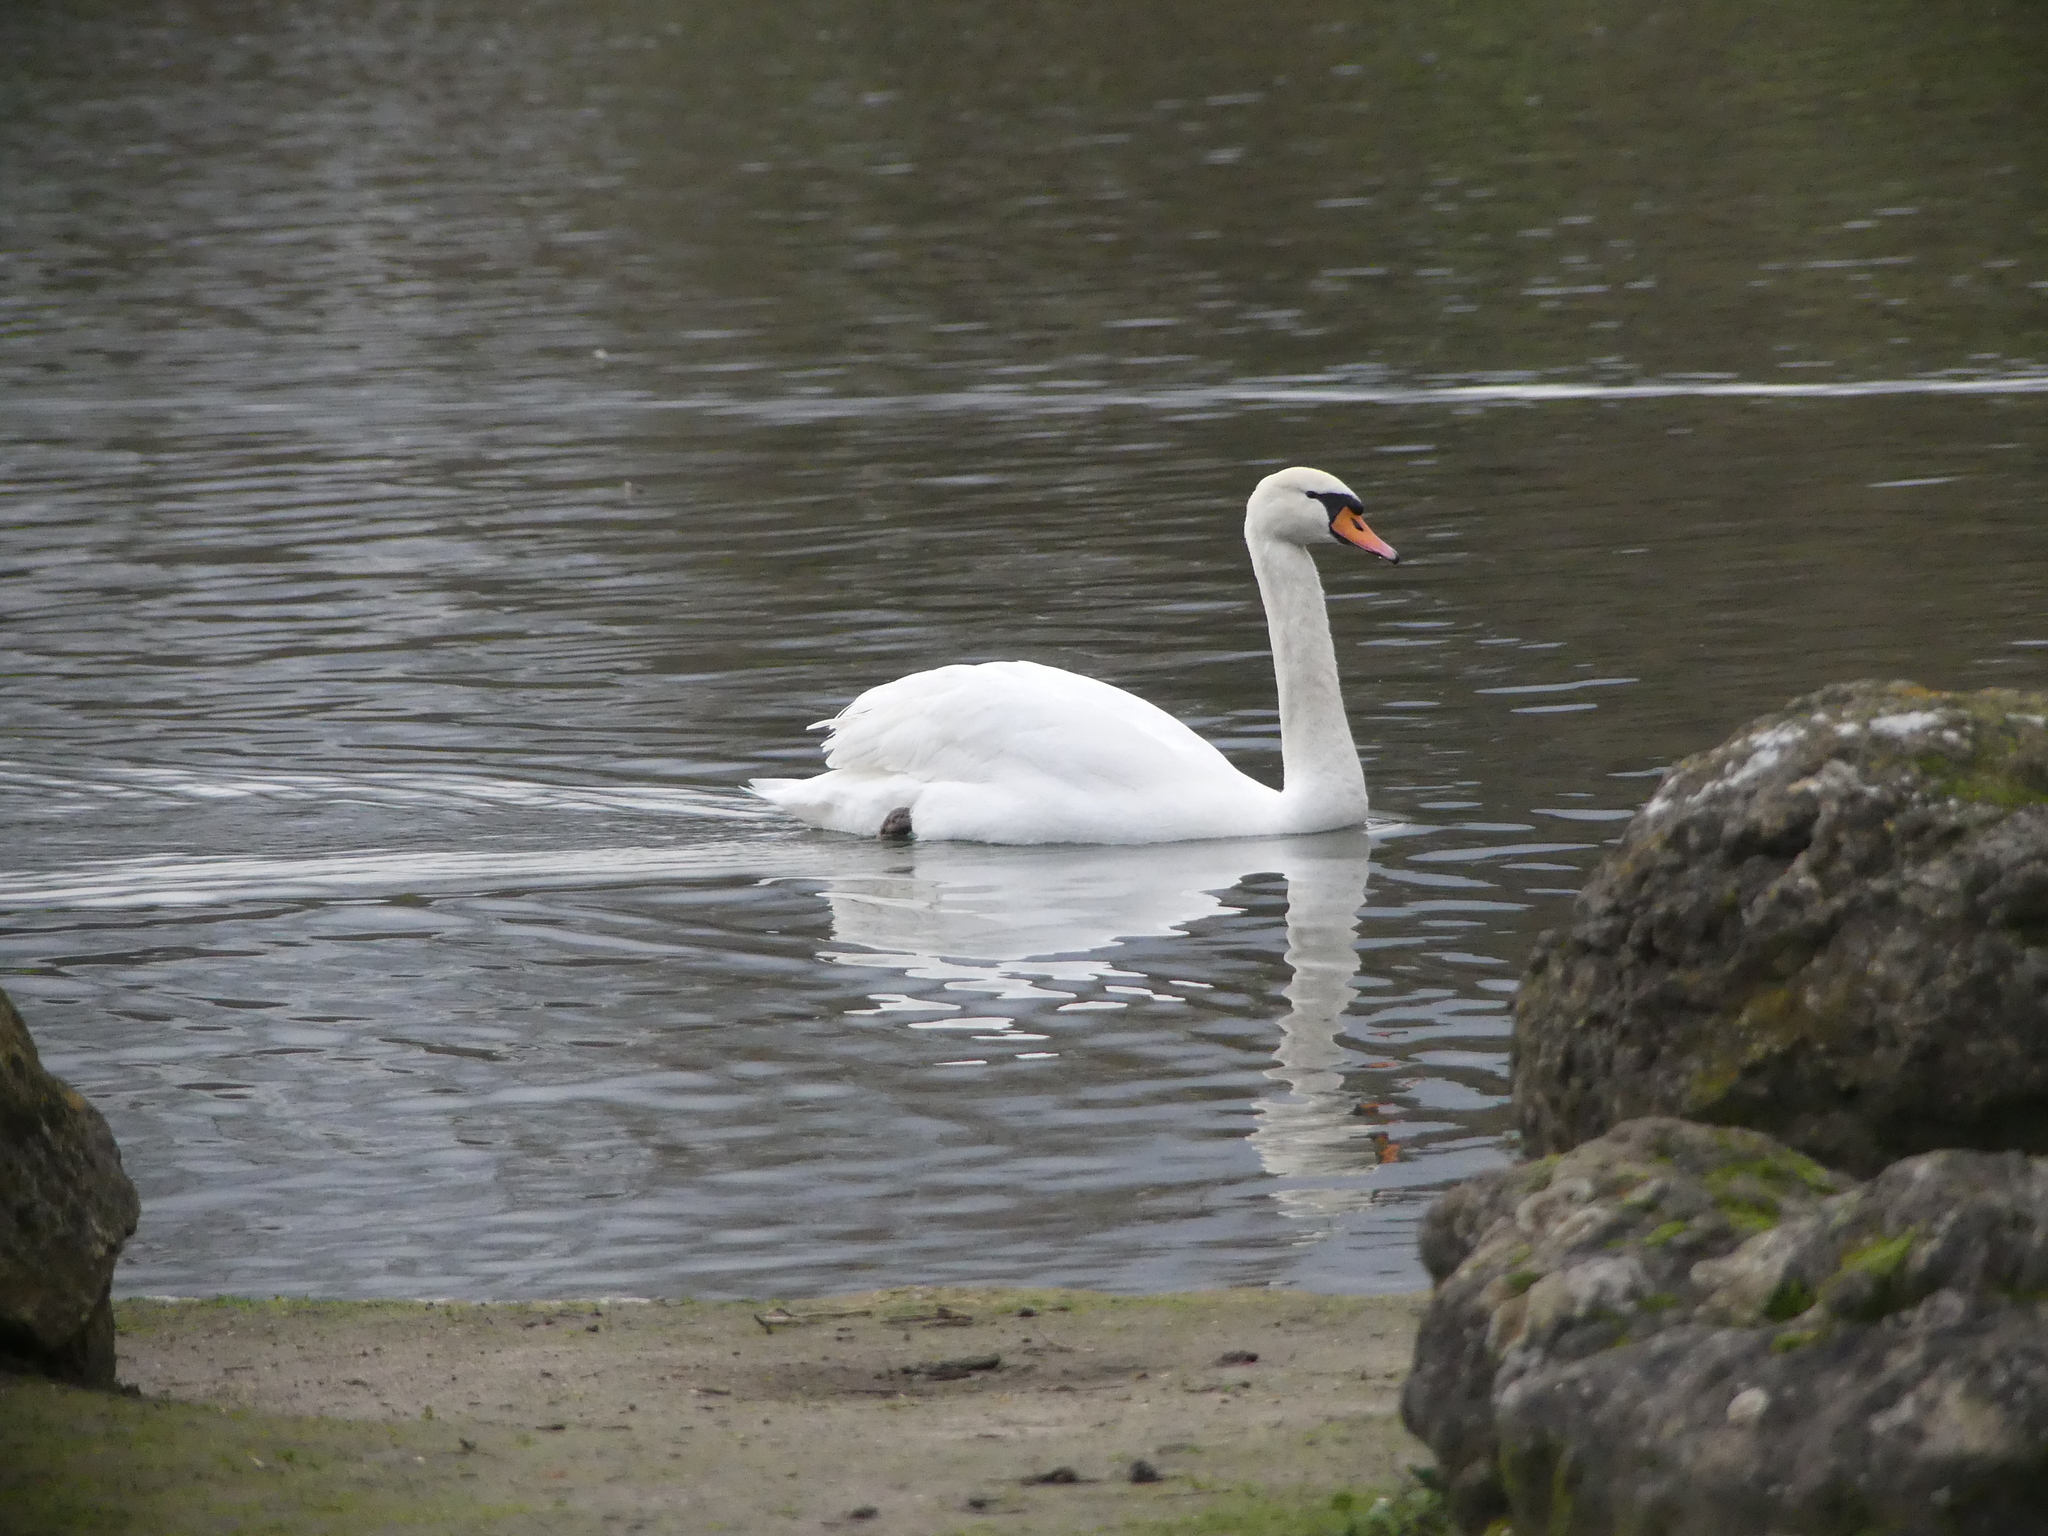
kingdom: Animalia
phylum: Chordata
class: Aves
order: Anseriformes
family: Anatidae
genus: Cygnus
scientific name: Cygnus olor
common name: Mute swan
